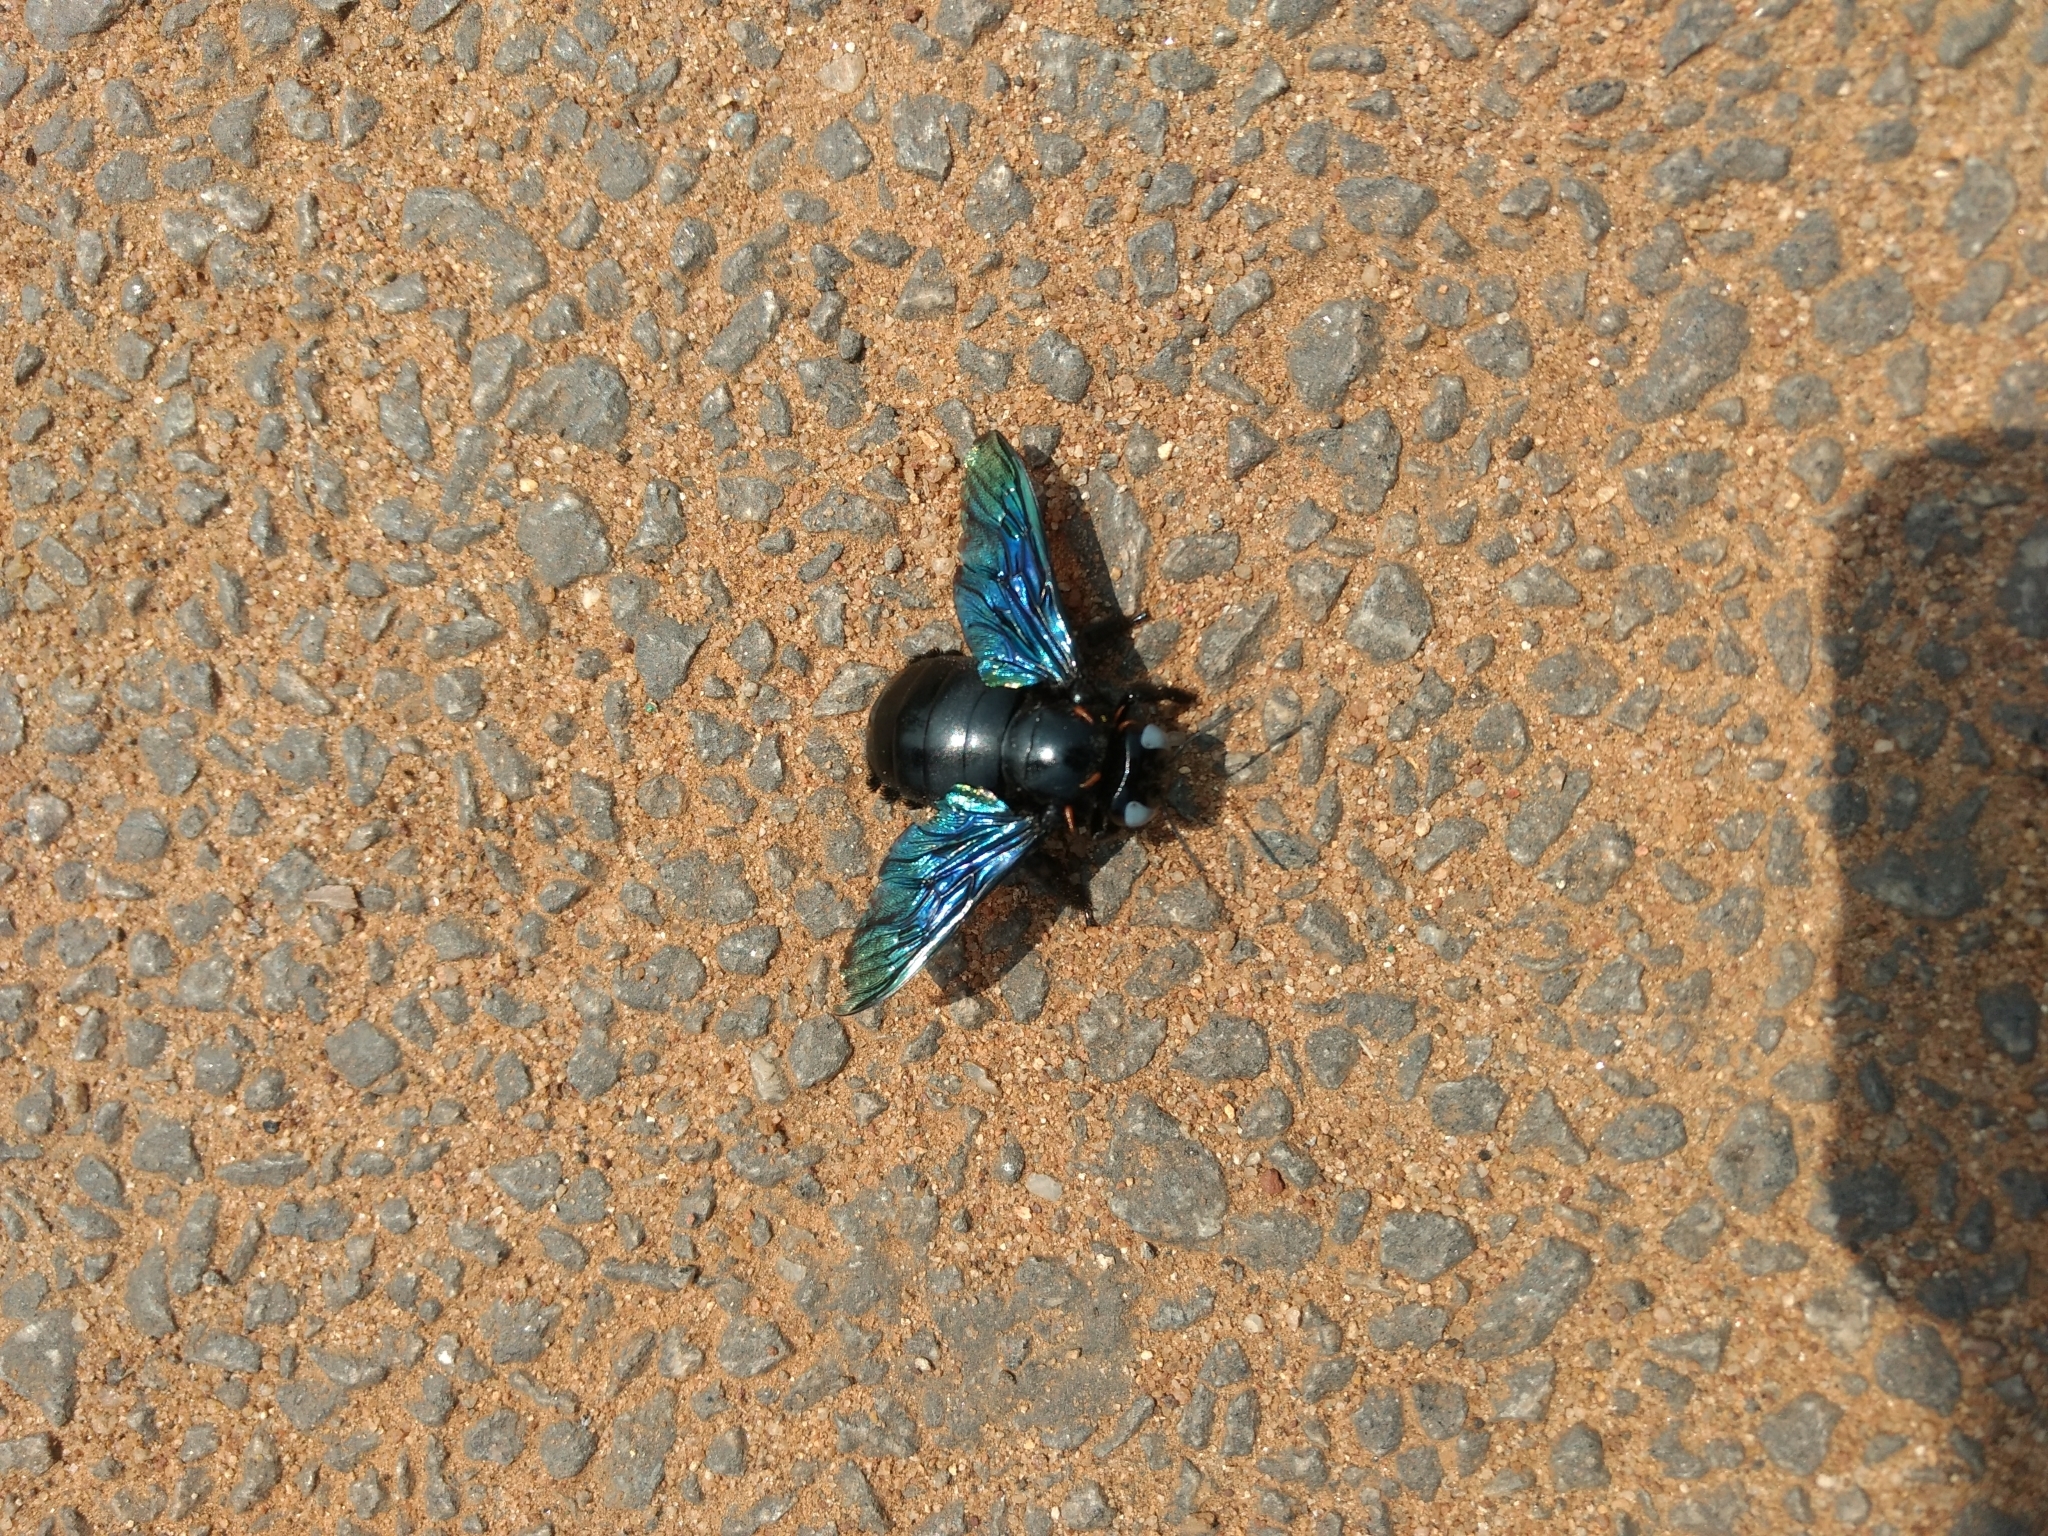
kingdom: Animalia
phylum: Arthropoda
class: Insecta
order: Hymenoptera
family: Apidae
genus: Xylocopa
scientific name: Xylocopa tenuiscapa
